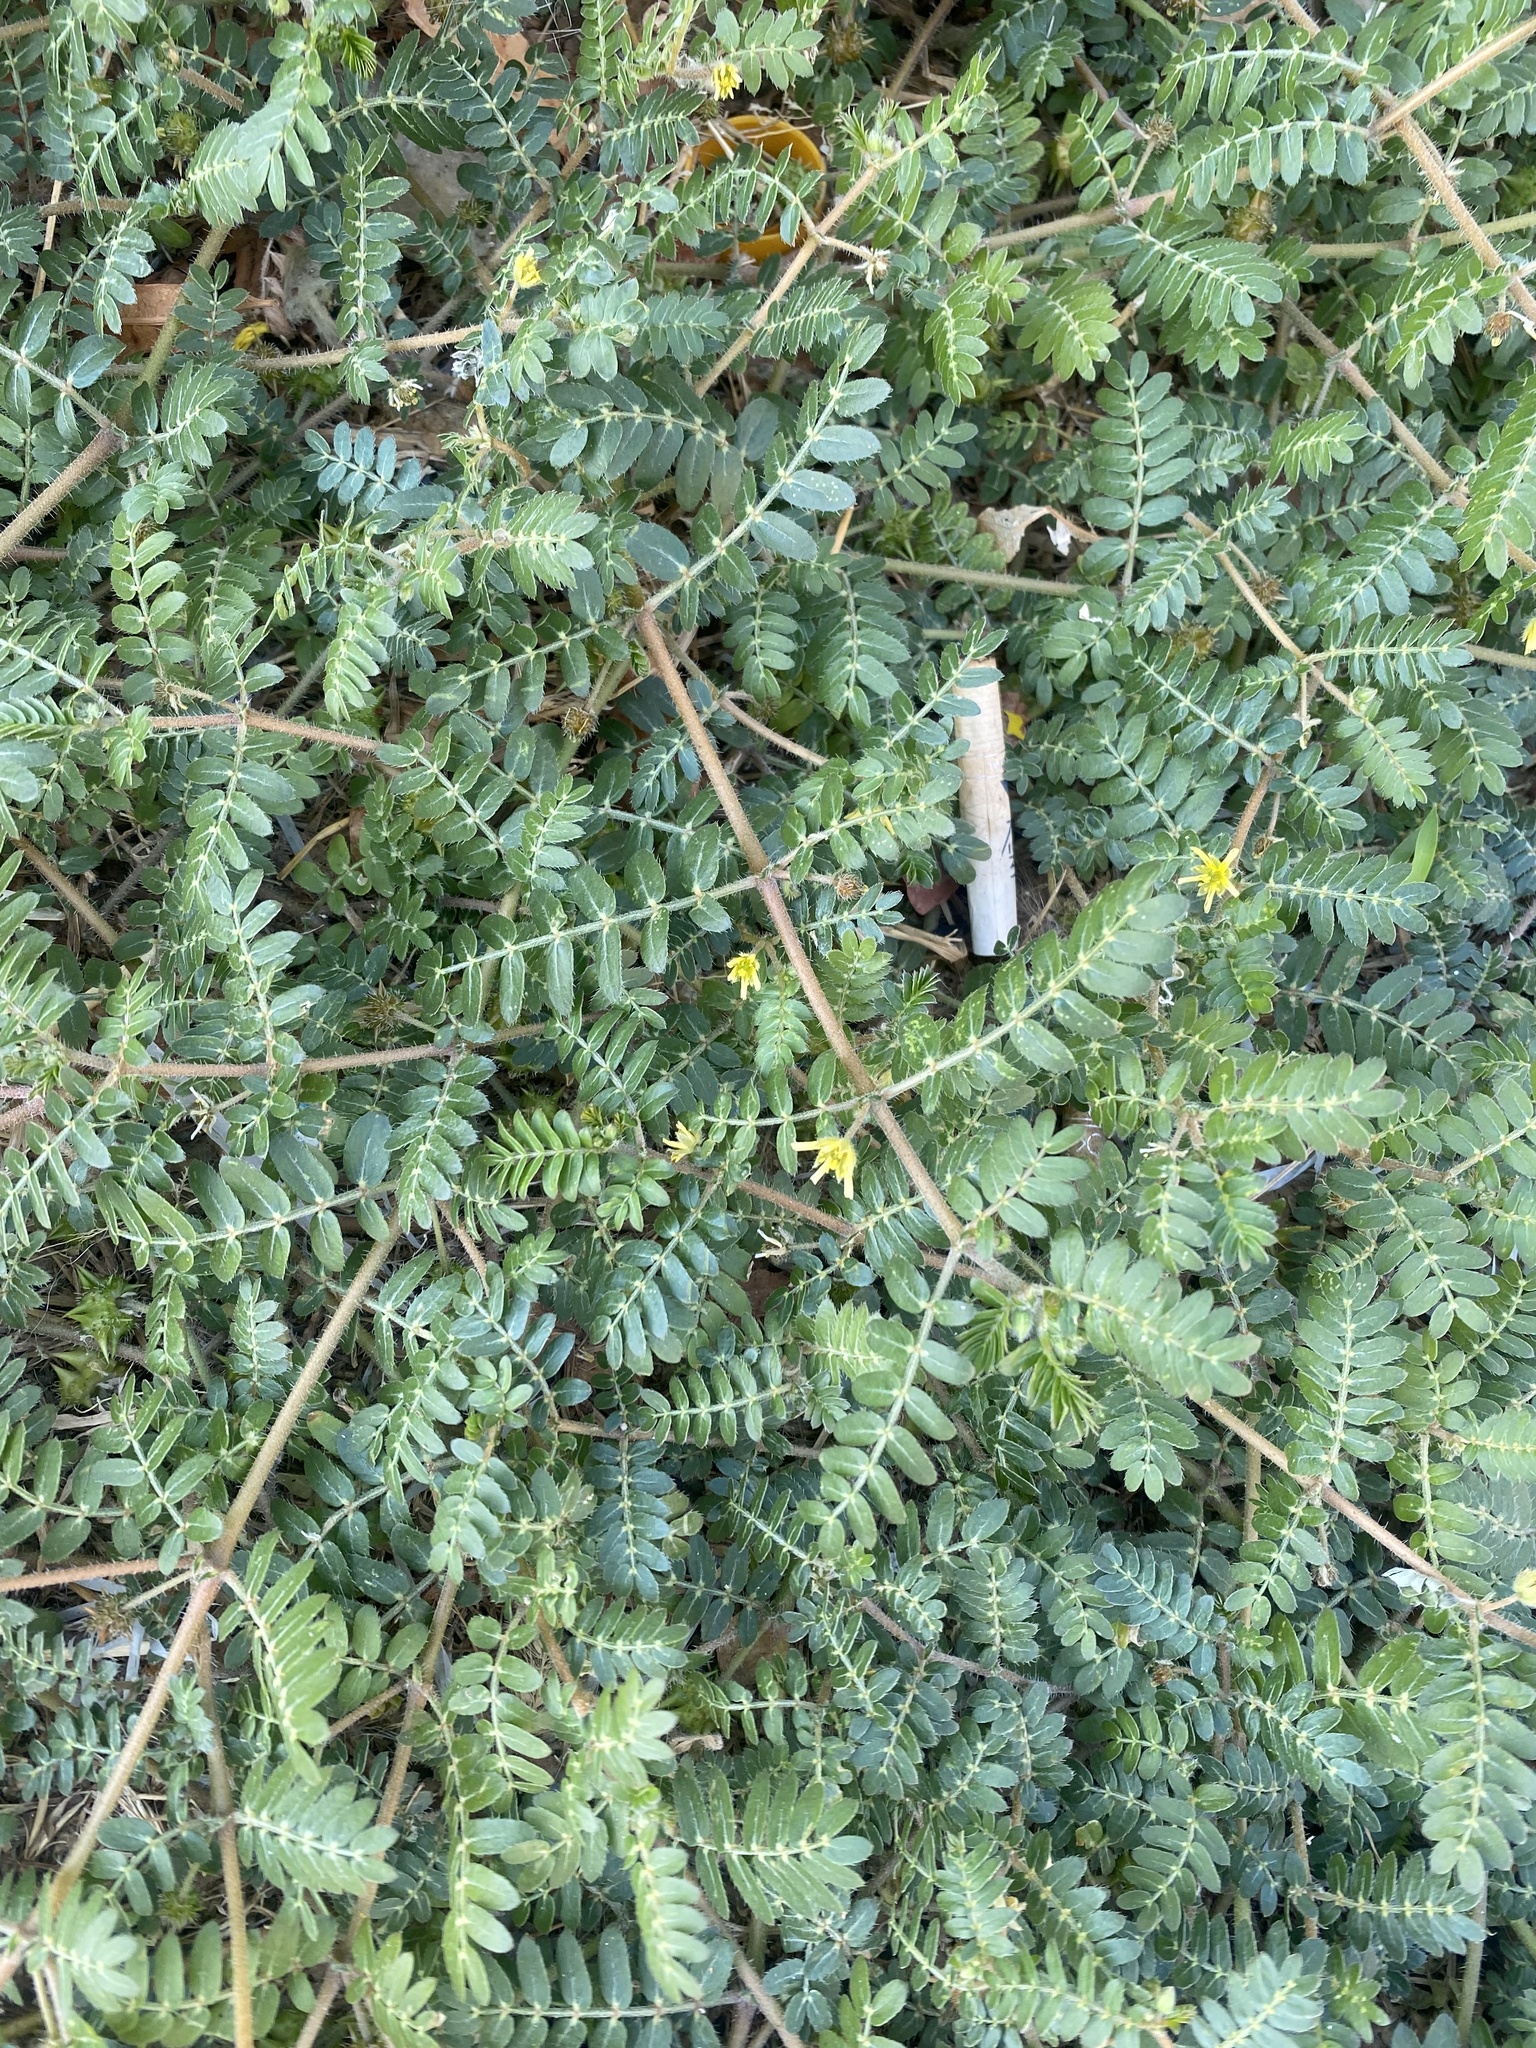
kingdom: Plantae
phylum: Tracheophyta
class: Magnoliopsida
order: Zygophyllales
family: Zygophyllaceae
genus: Tribulus
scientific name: Tribulus terrestris
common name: Puncturevine
